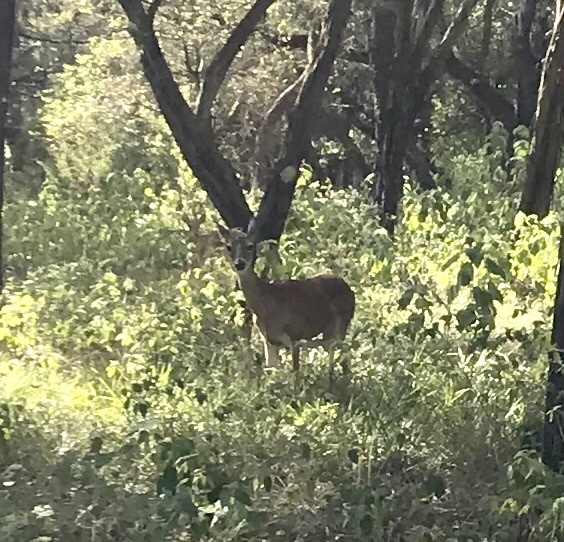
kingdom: Animalia
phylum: Chordata
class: Mammalia
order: Artiodactyla
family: Cervidae
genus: Odocoileus
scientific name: Odocoileus virginianus
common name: White-tailed deer
